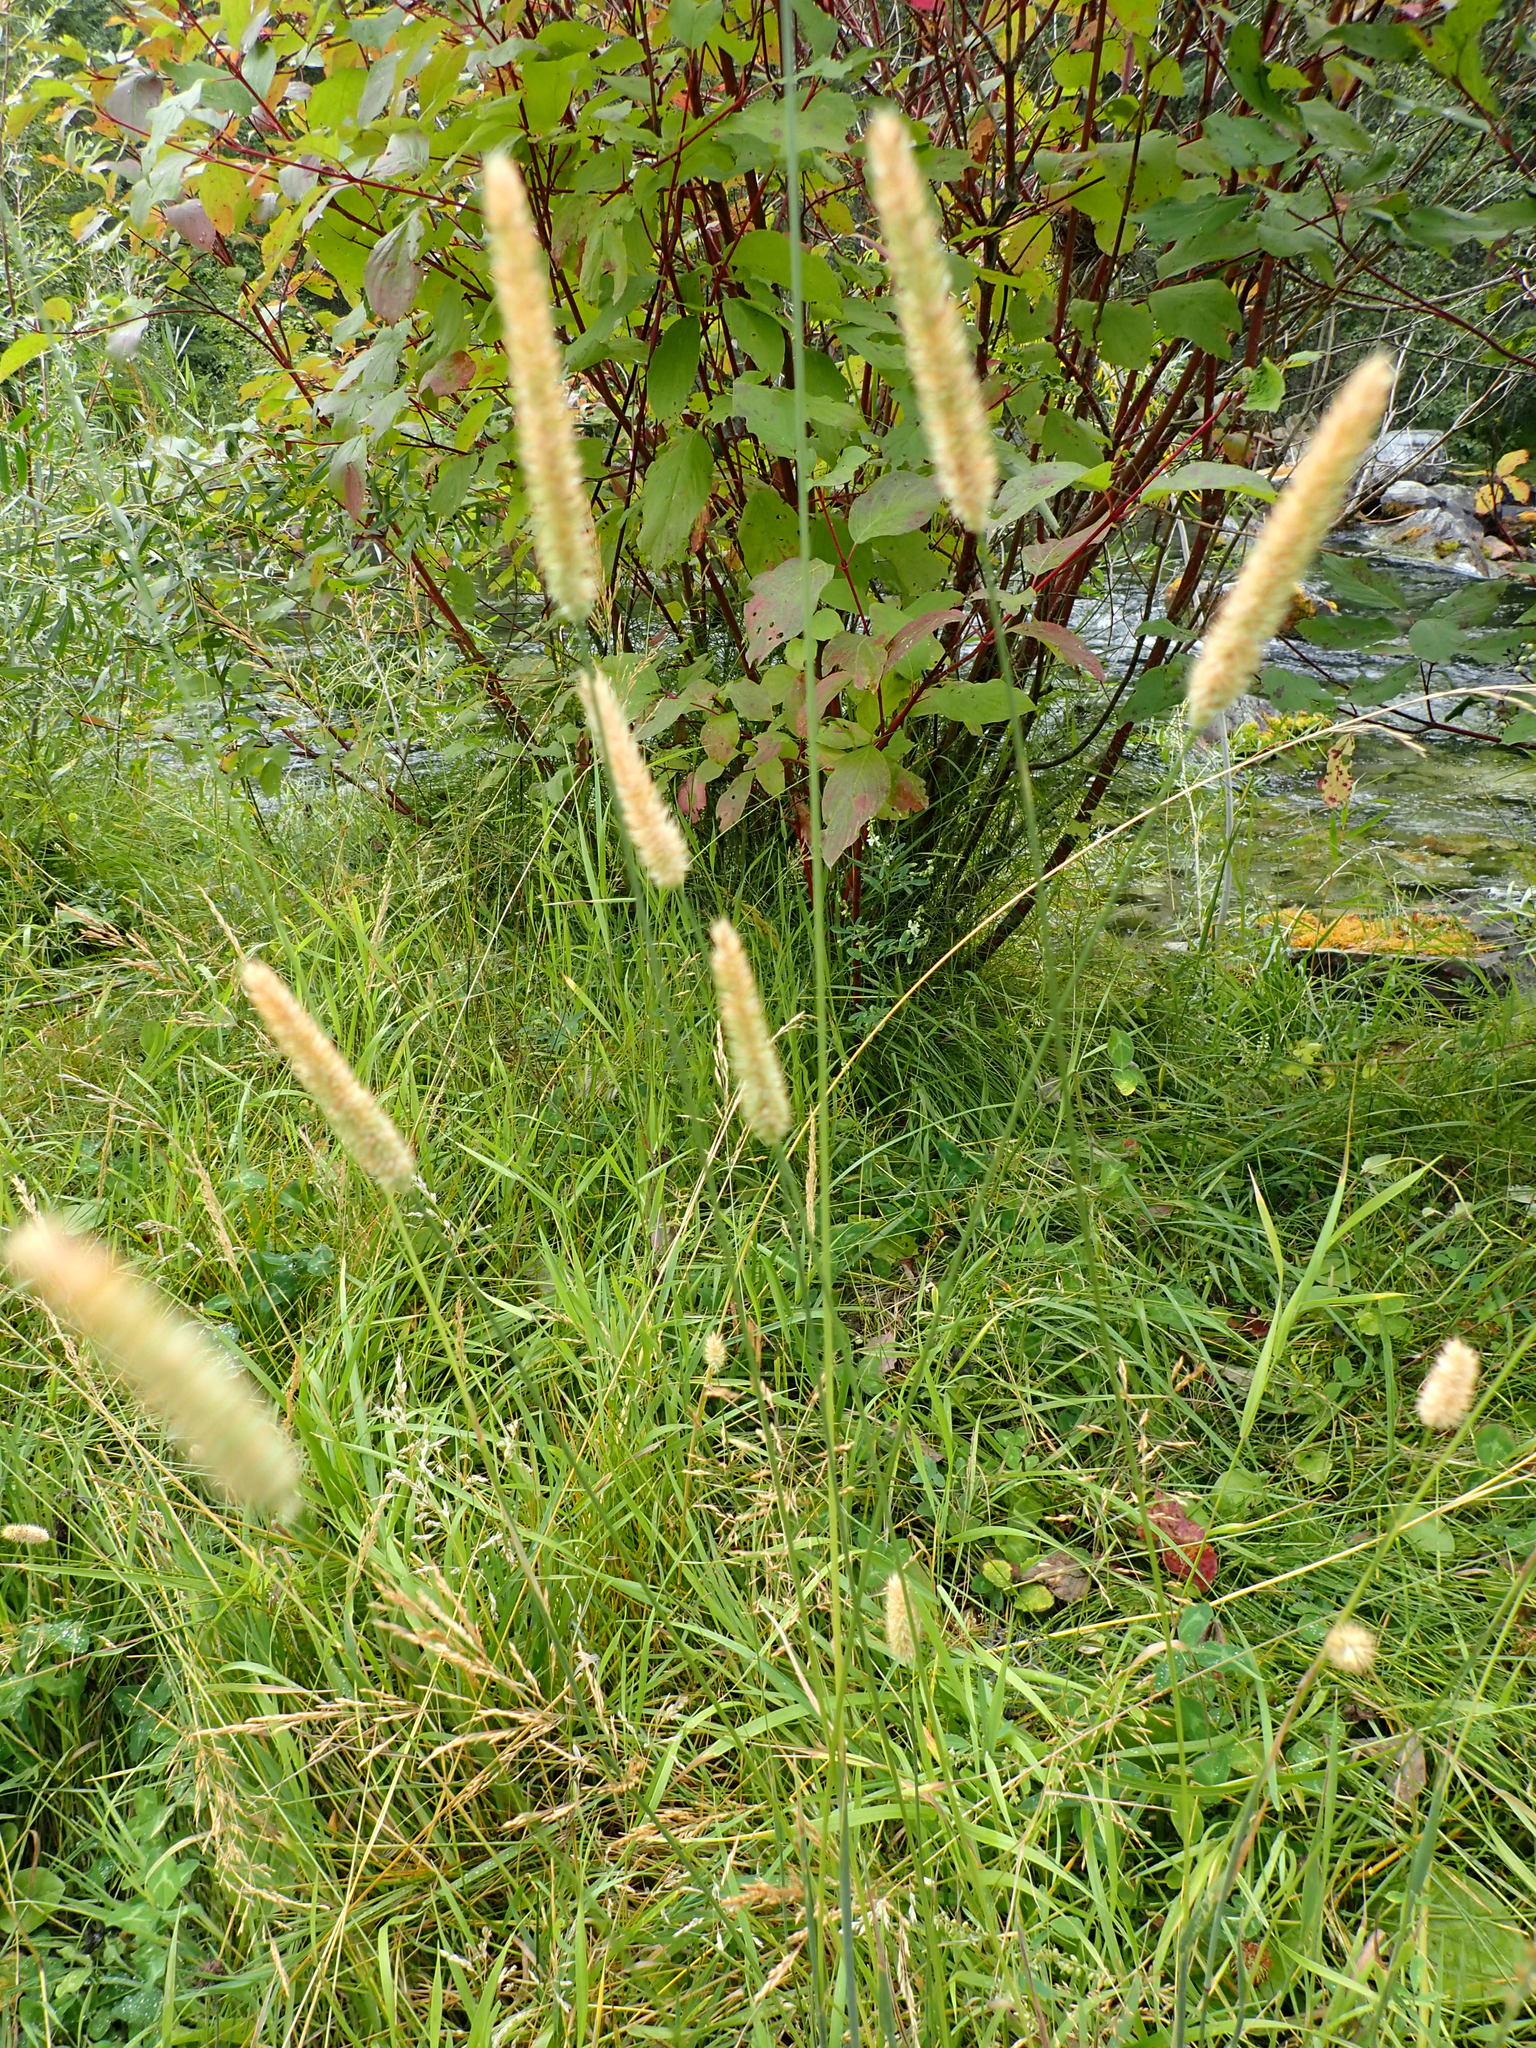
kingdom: Plantae
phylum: Tracheophyta
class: Liliopsida
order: Poales
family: Poaceae
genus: Phleum
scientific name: Phleum pratense
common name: Timothy grass
